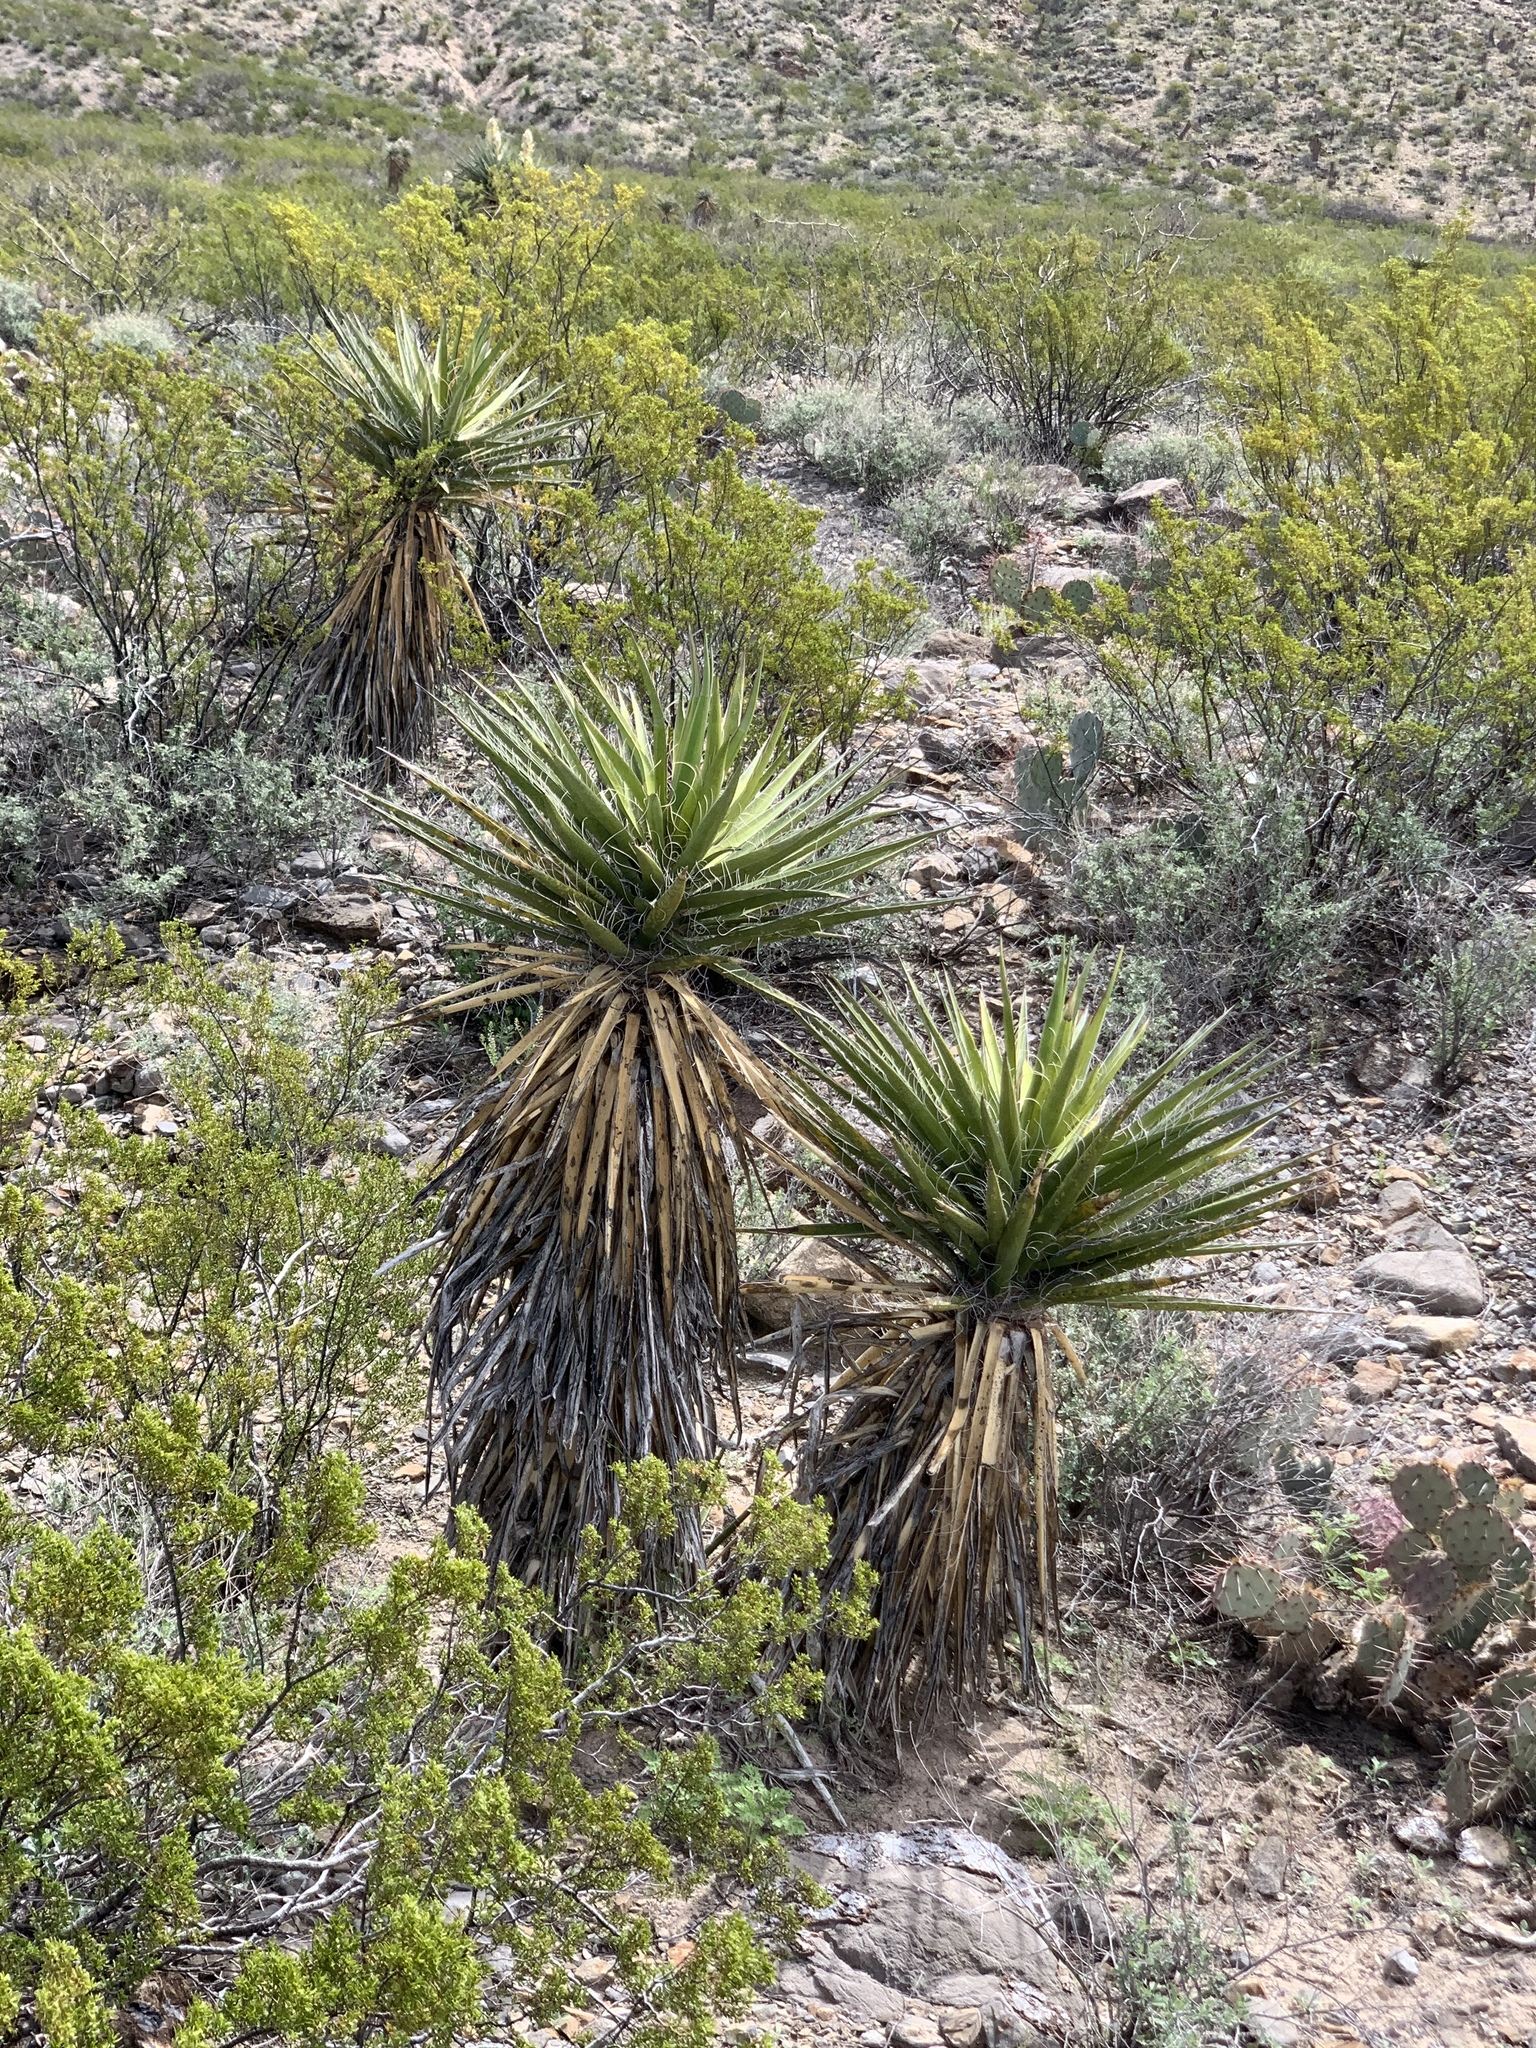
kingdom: Plantae
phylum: Tracheophyta
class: Liliopsida
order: Asparagales
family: Asparagaceae
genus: Yucca
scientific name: Yucca treculiana
